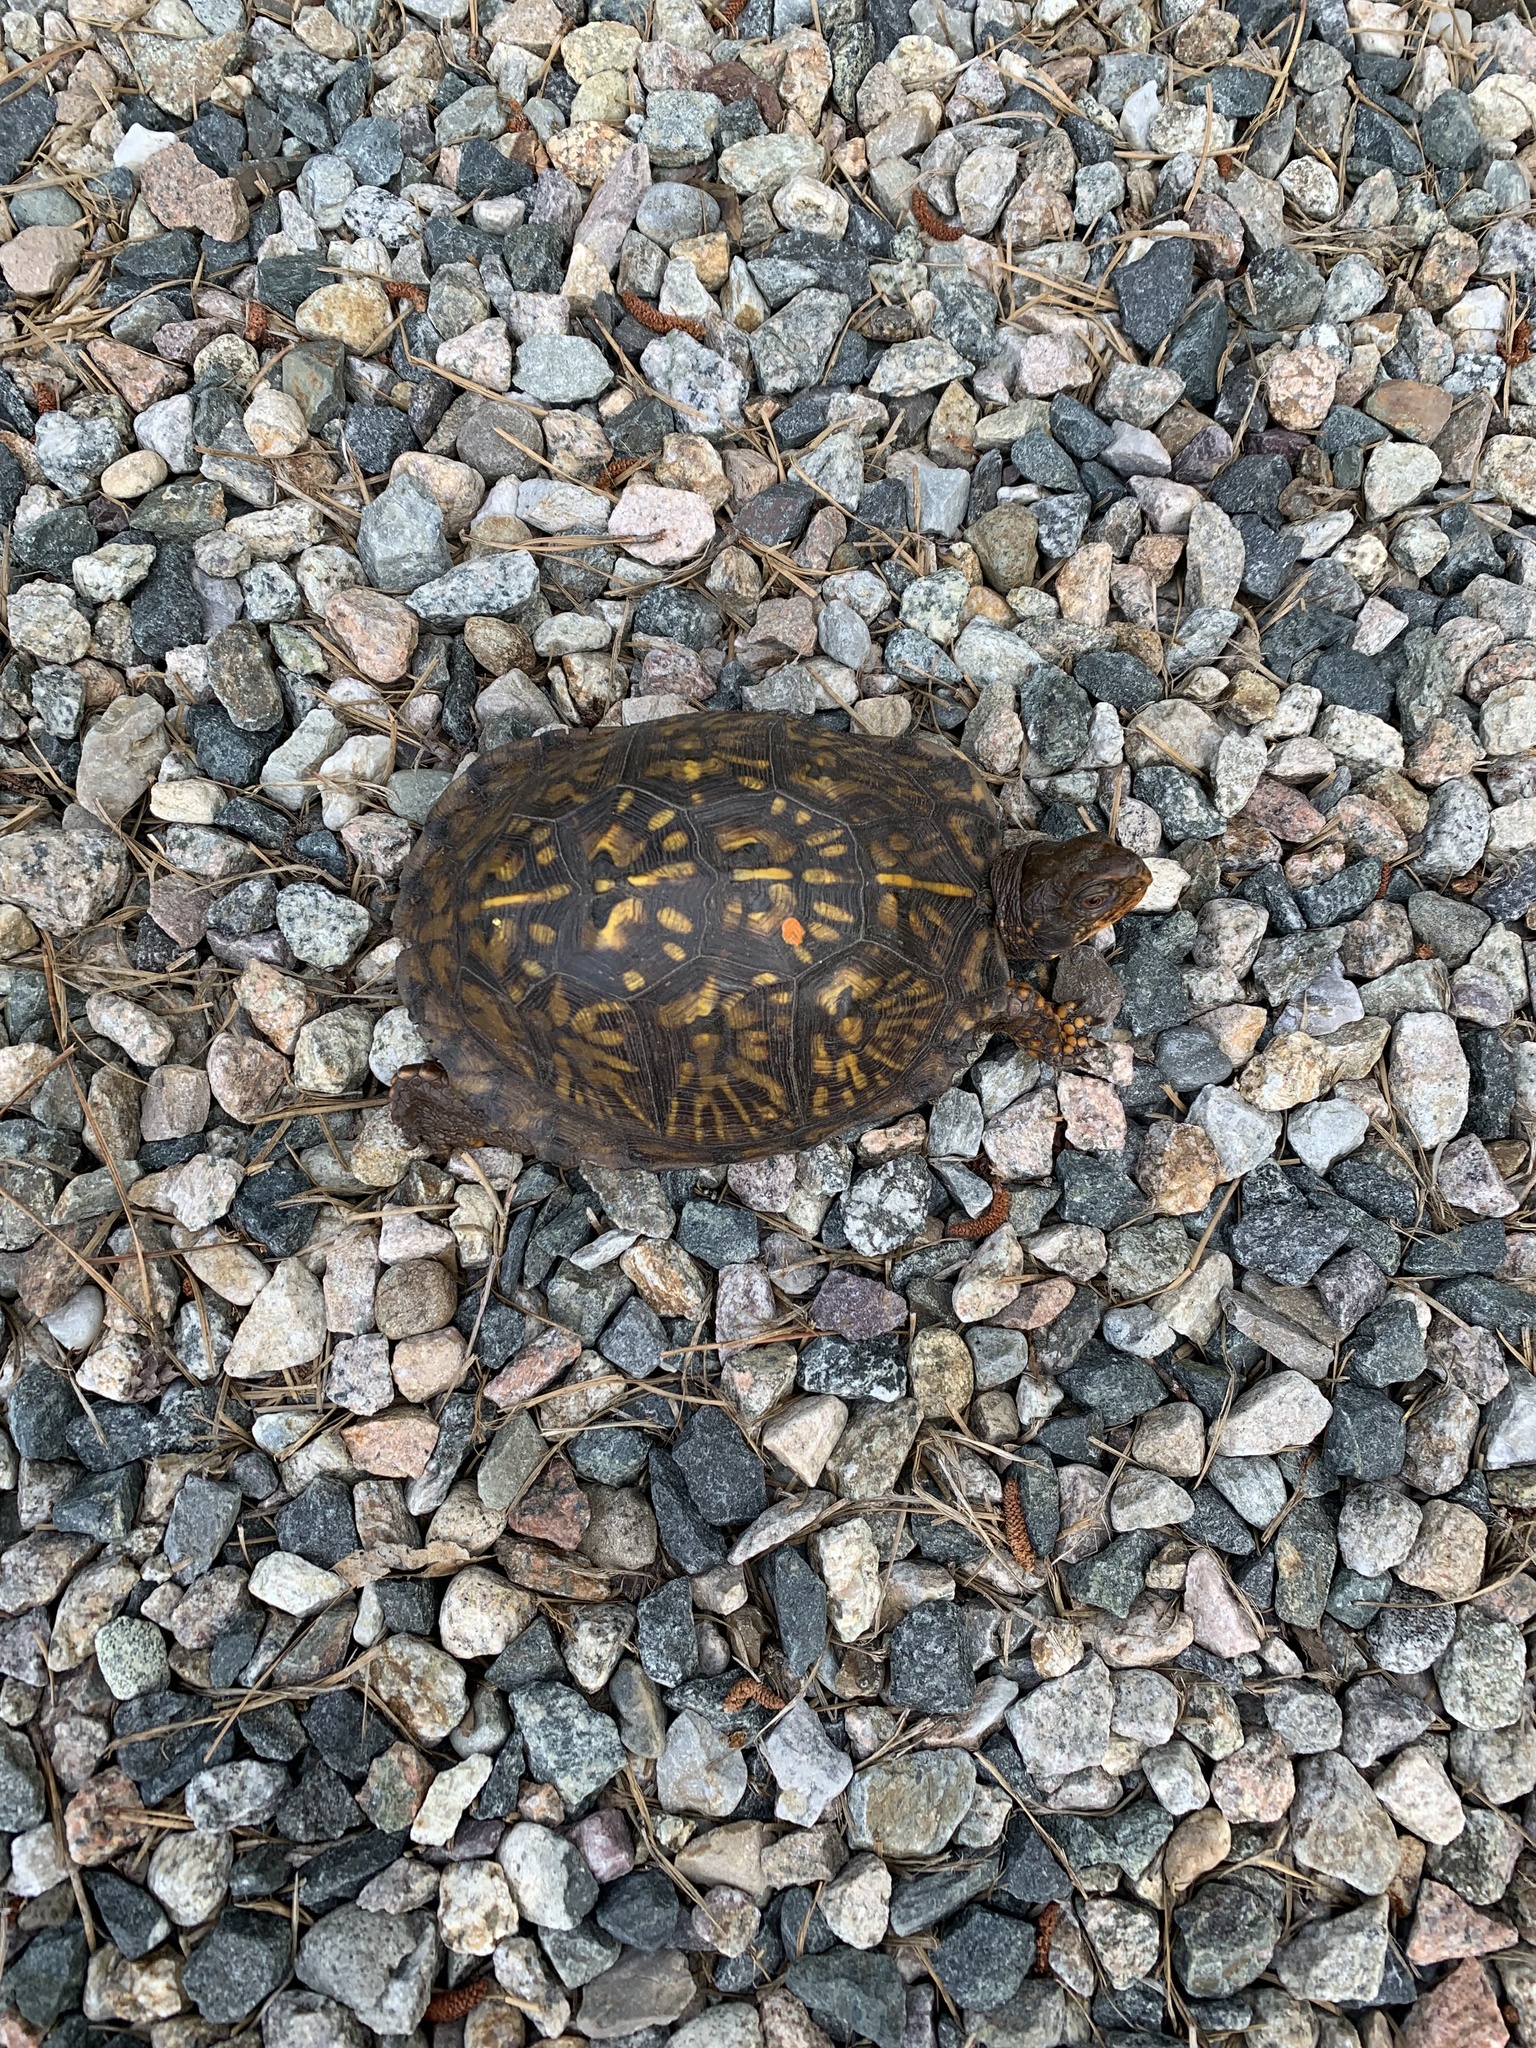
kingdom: Animalia
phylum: Chordata
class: Testudines
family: Emydidae
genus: Terrapene
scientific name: Terrapene carolina
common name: Common box turtle
